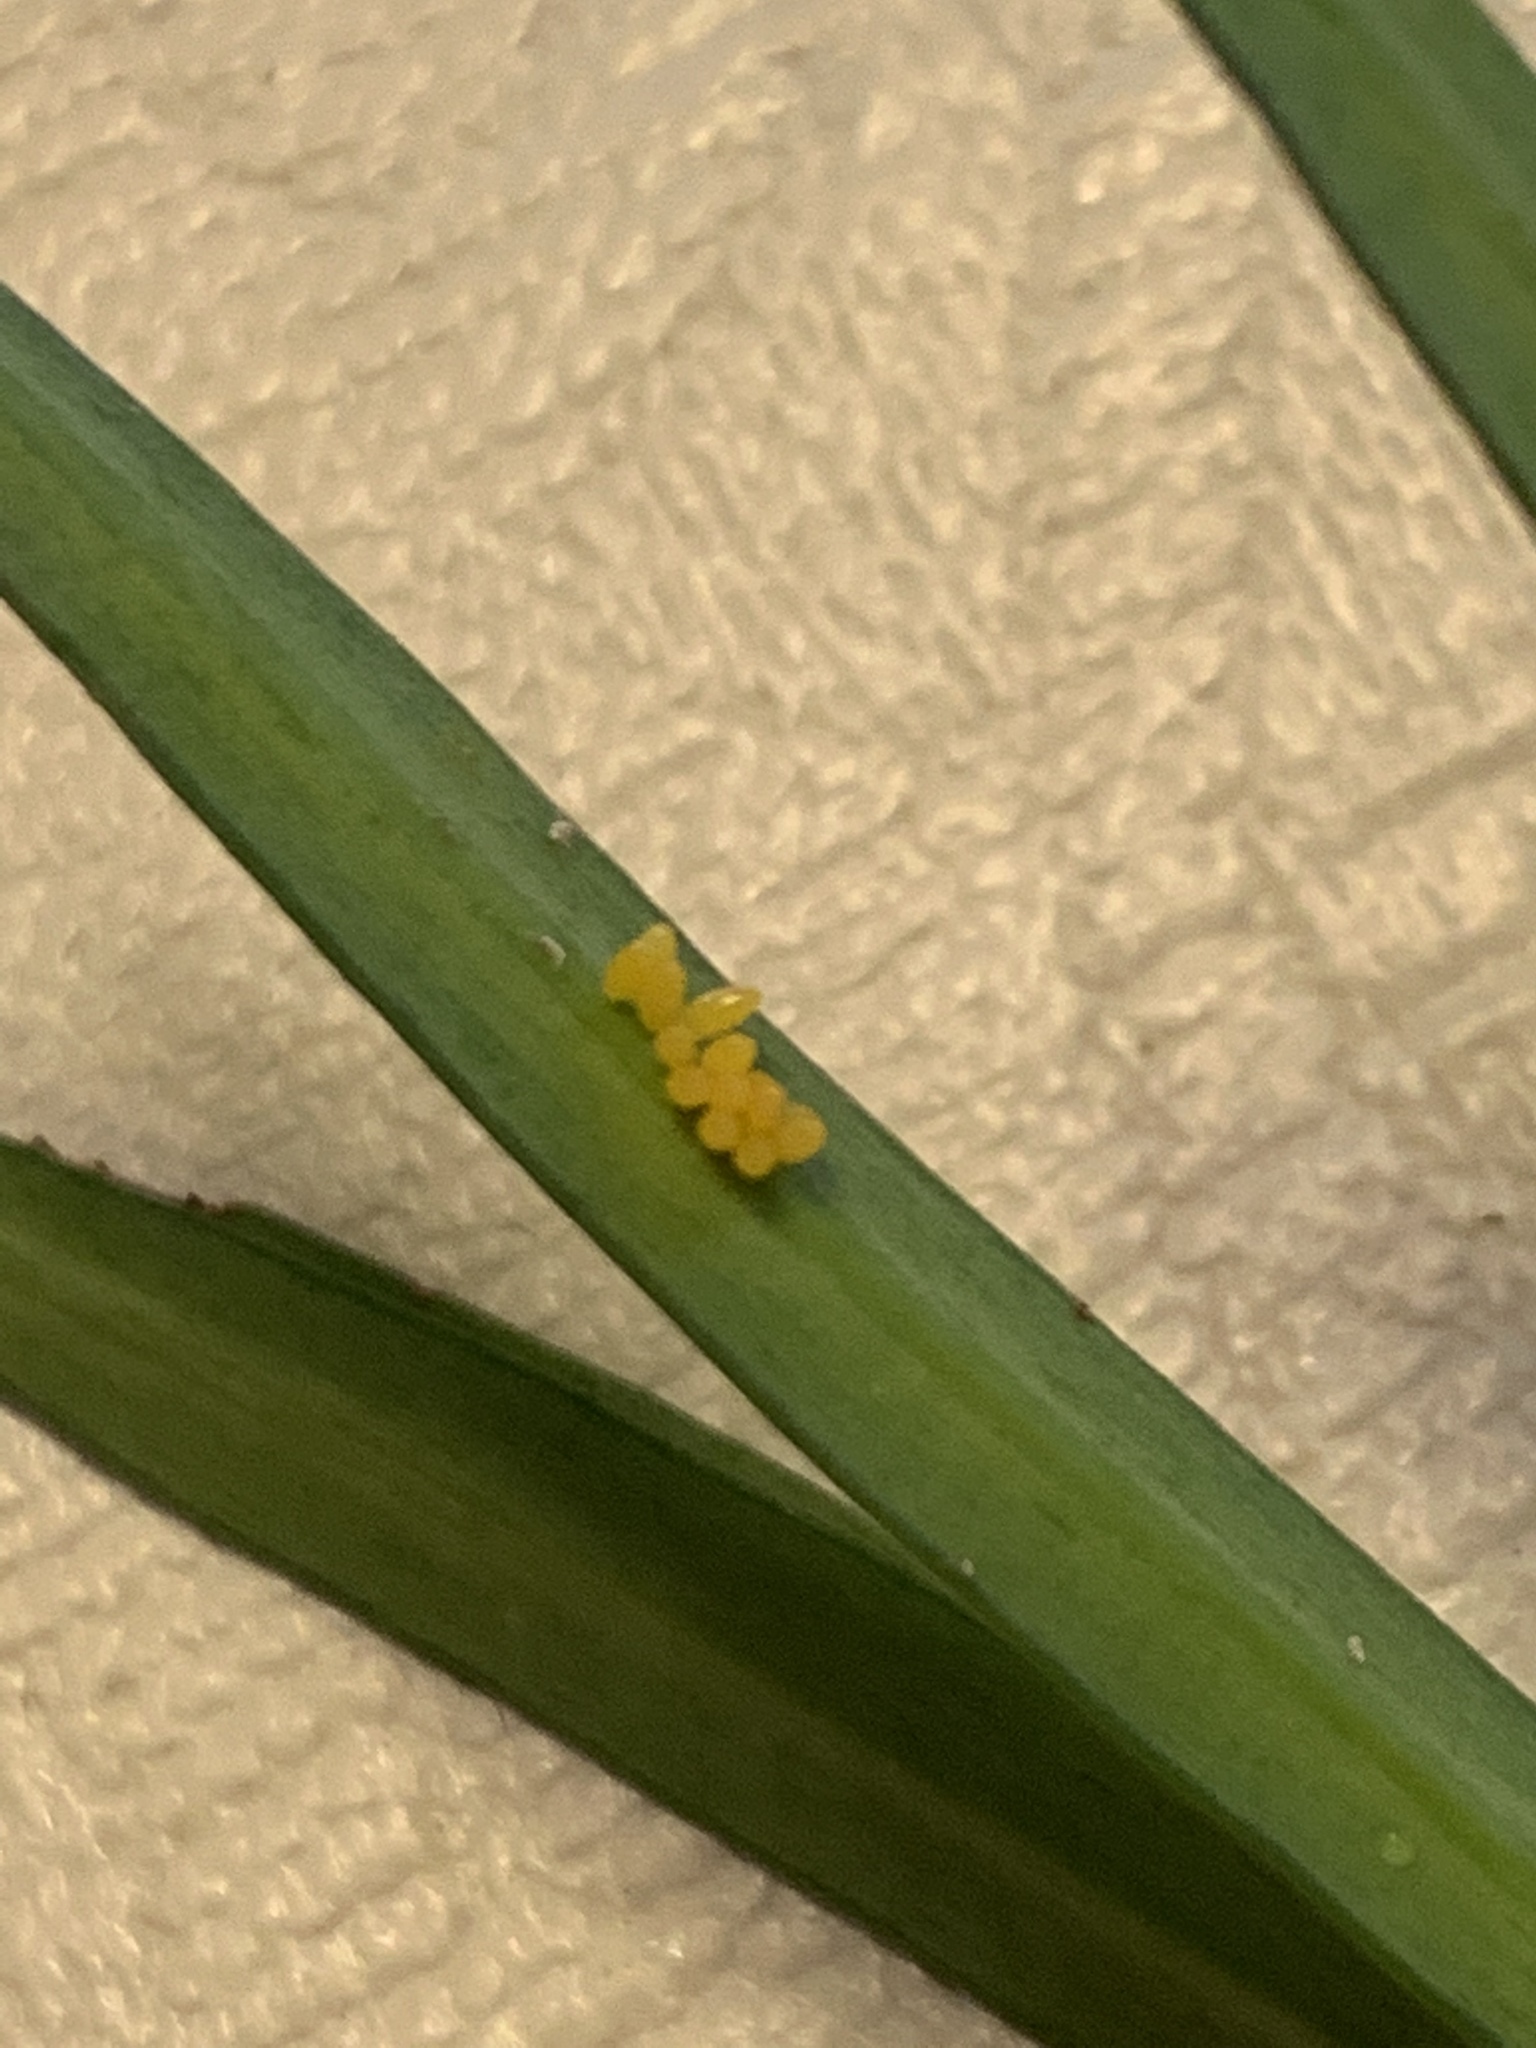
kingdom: Animalia
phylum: Arthropoda
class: Insecta
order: Coleoptera
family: Coccinellidae
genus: Harmonia
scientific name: Harmonia axyridis
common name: Harlequin ladybird
